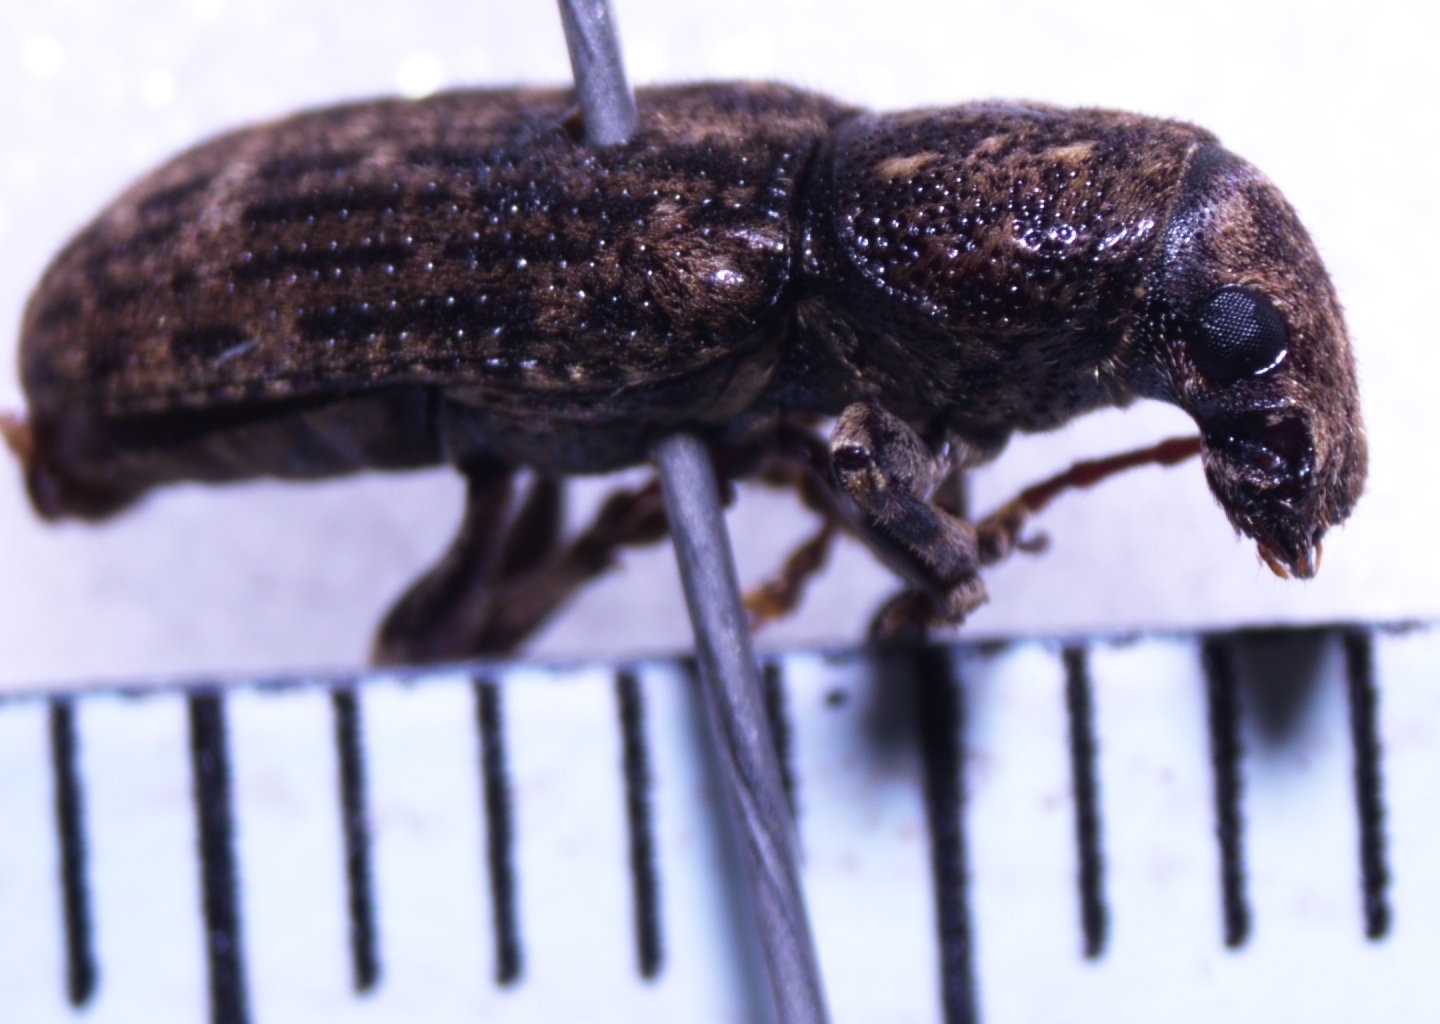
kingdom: Animalia
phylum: Arthropoda
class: Insecta
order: Coleoptera
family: Anthribidae
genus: Eucorynus
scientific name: Eucorynus crassicornis
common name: Fungus weevil
